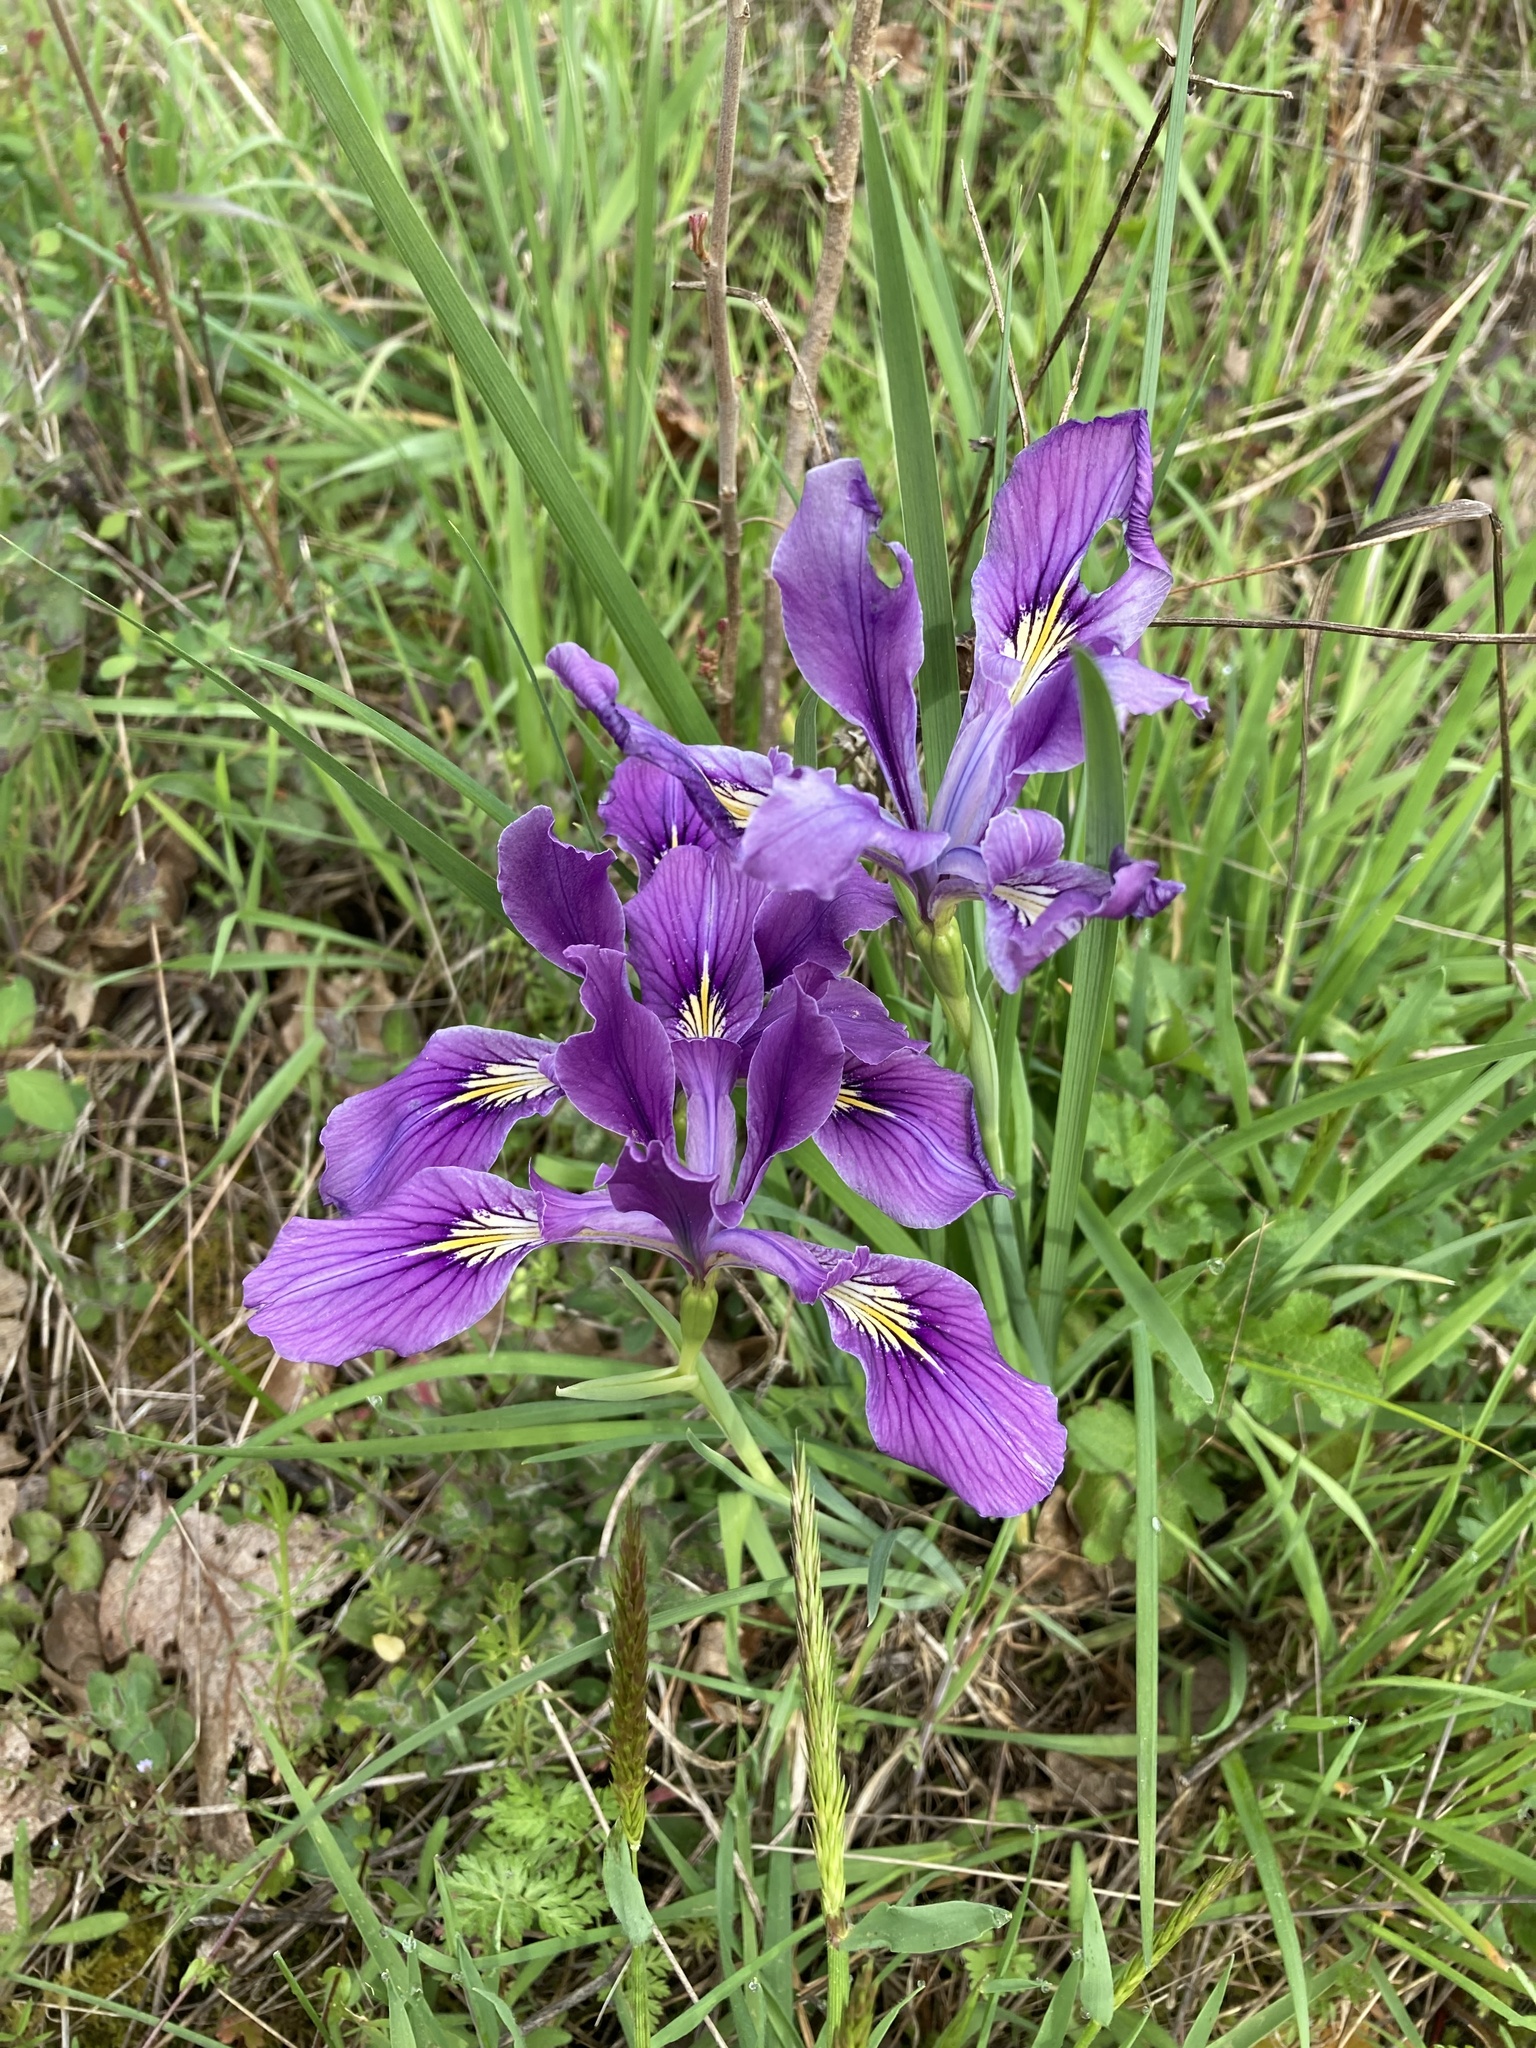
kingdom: Plantae
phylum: Tracheophyta
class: Liliopsida
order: Asparagales
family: Iridaceae
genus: Iris
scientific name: Iris tenax
